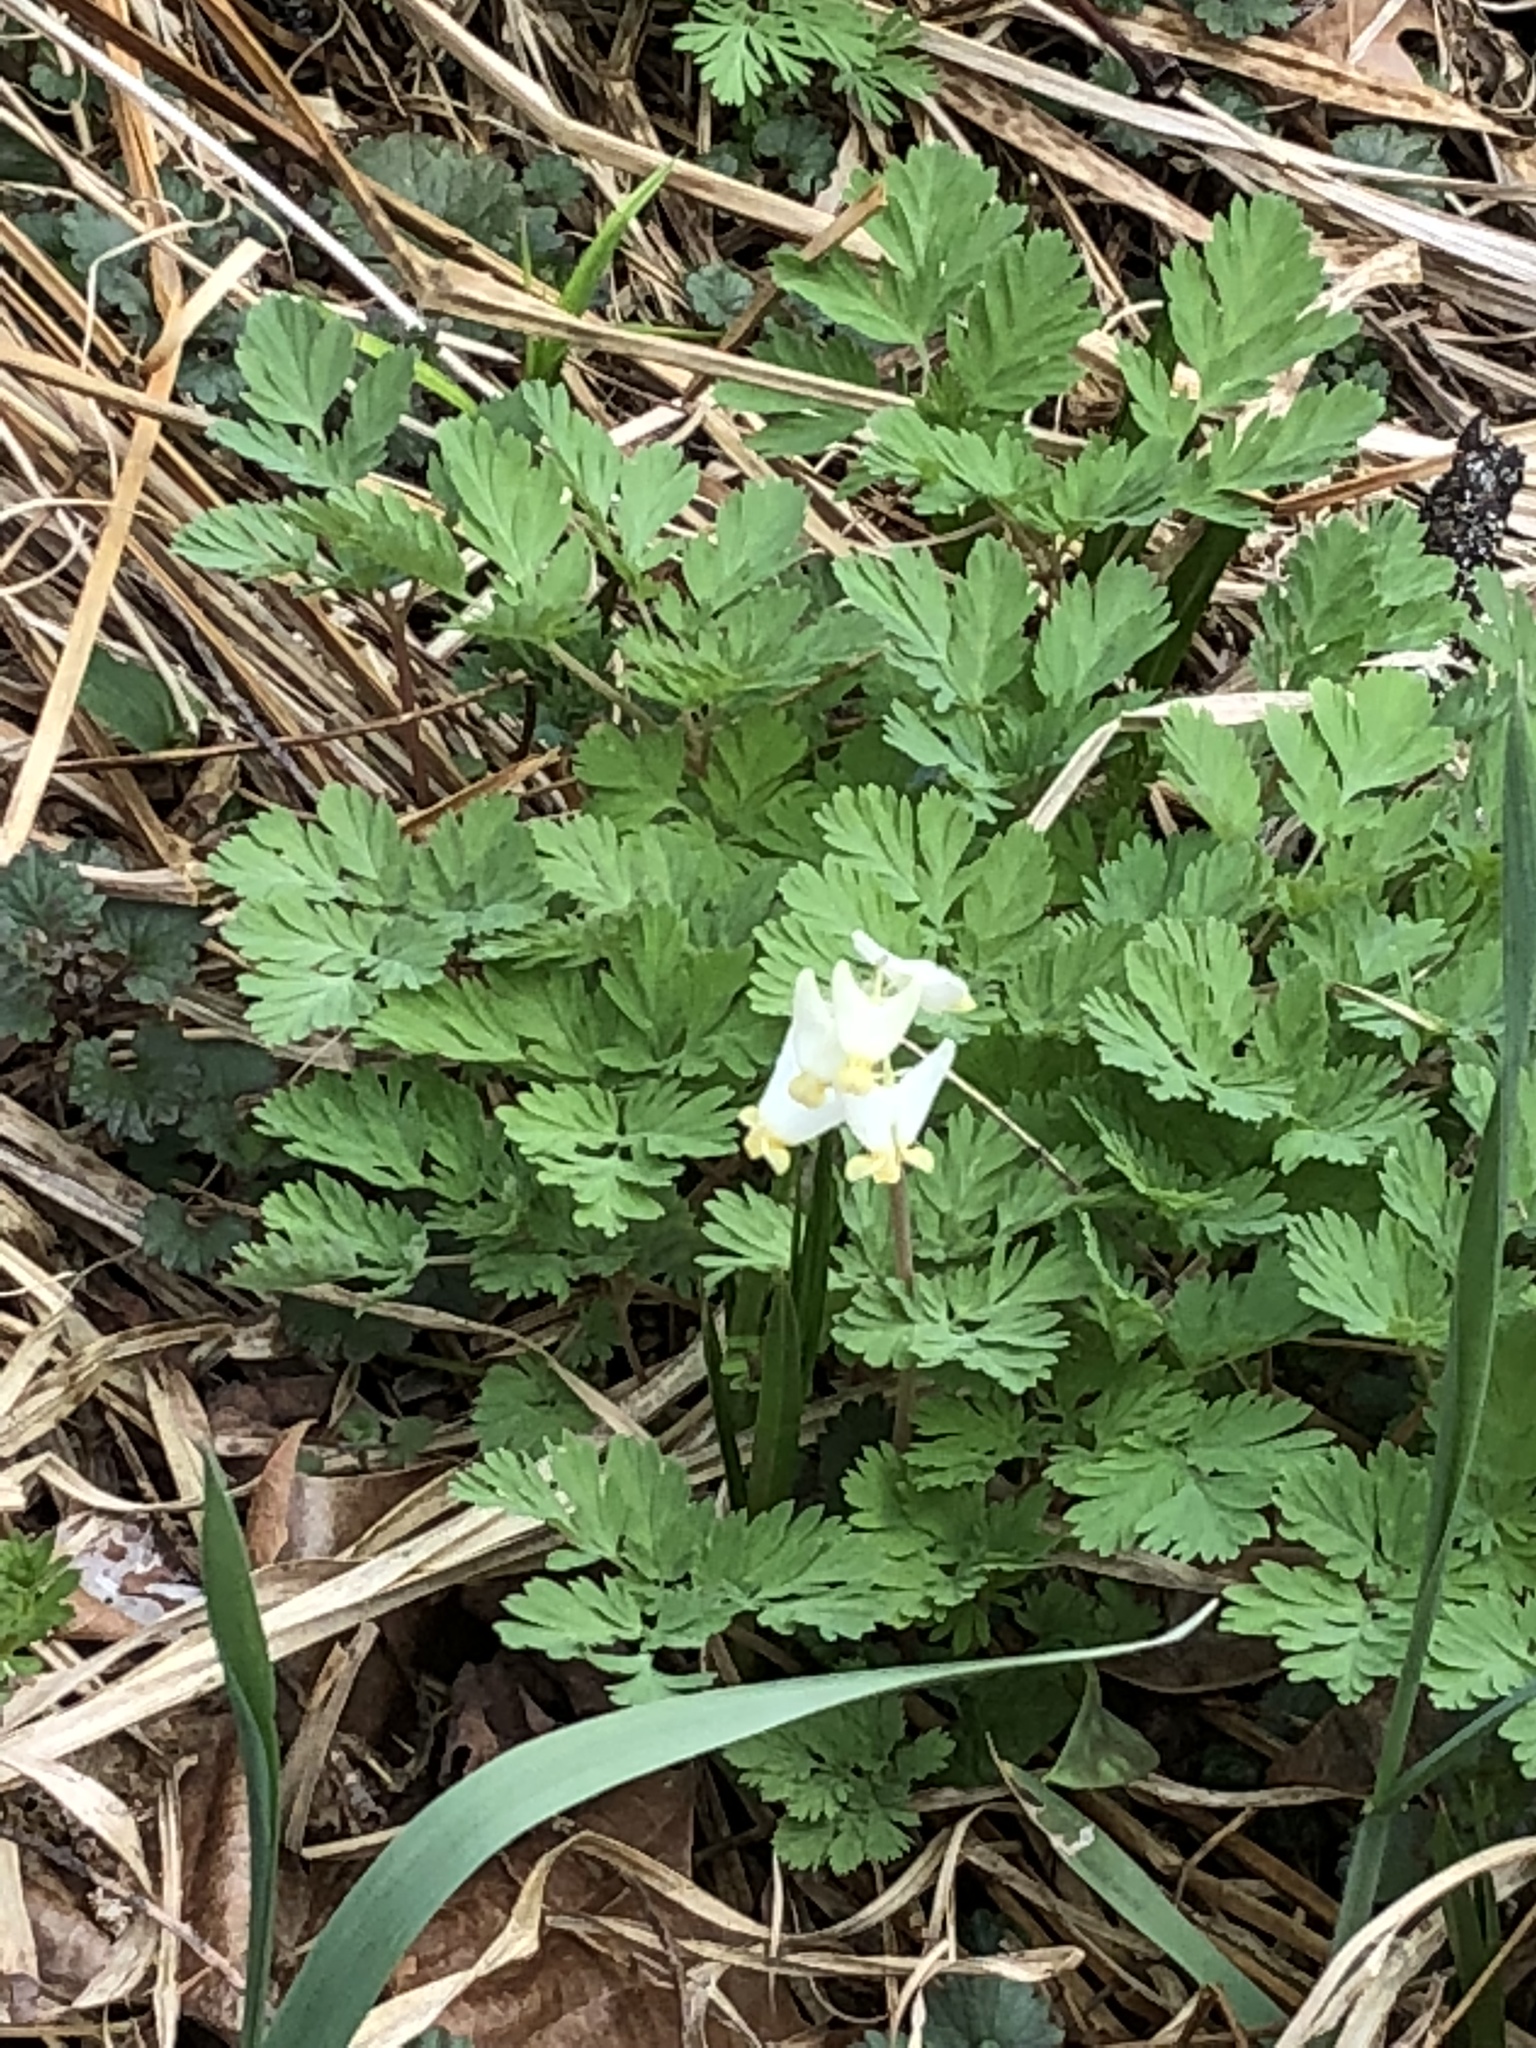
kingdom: Plantae
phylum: Tracheophyta
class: Magnoliopsida
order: Ranunculales
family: Papaveraceae
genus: Dicentra
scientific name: Dicentra cucullaria
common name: Dutchman's breeches
